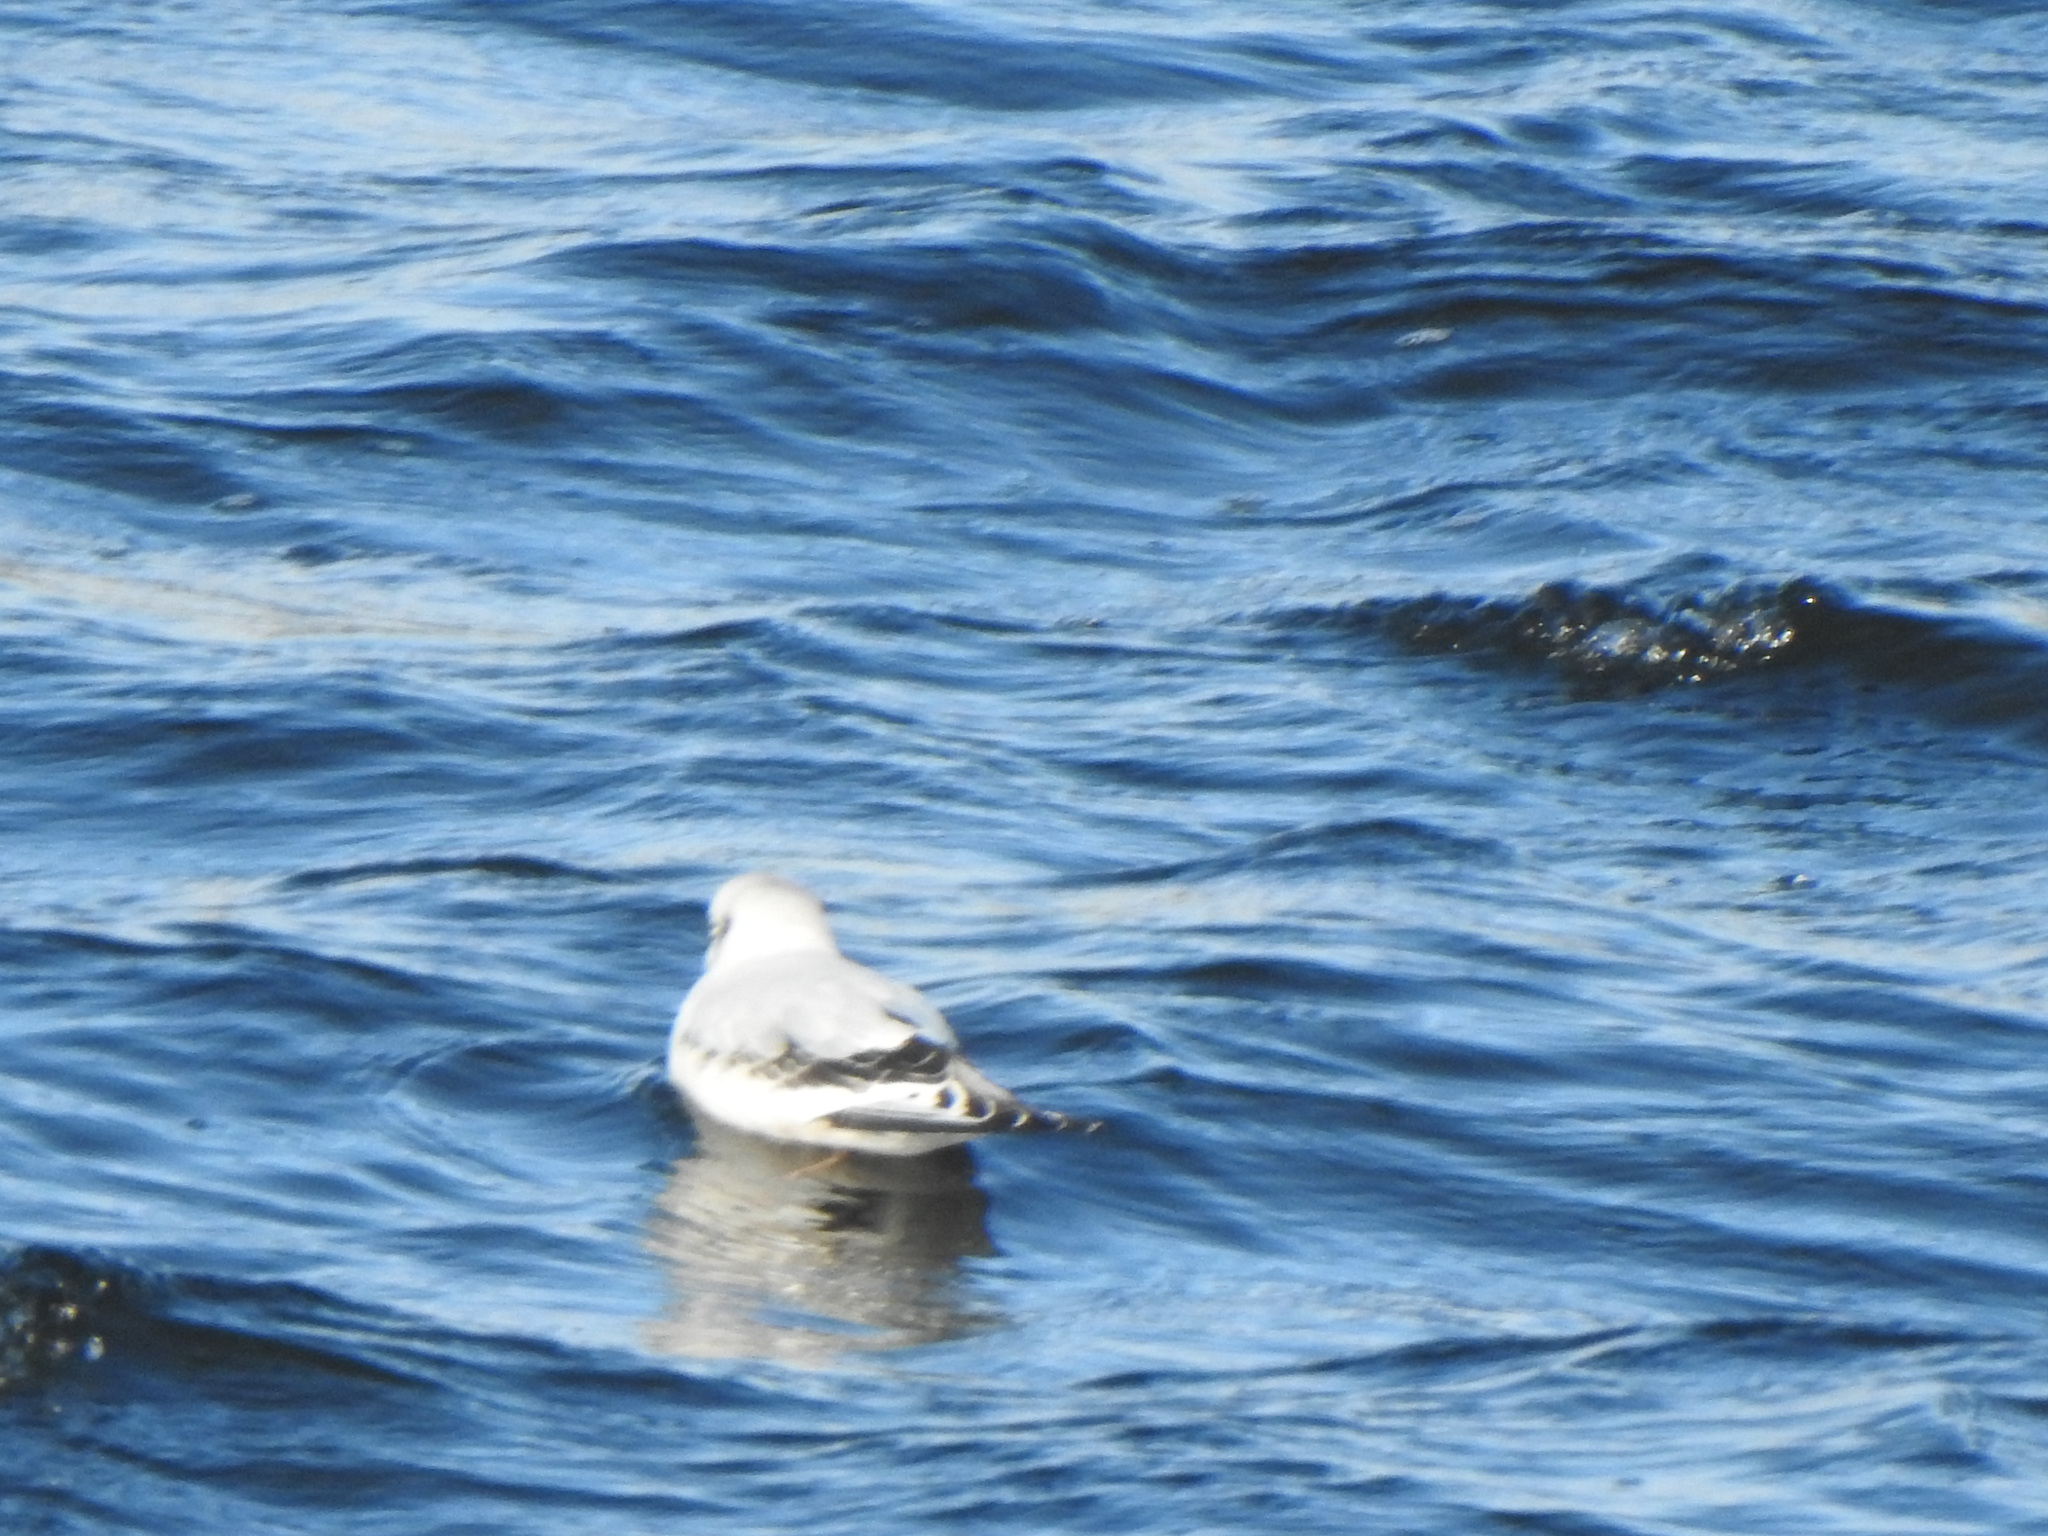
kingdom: Animalia
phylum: Chordata
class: Aves
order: Charadriiformes
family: Laridae
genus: Rhodostethia
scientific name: Rhodostethia rosea
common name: Ross's gull
